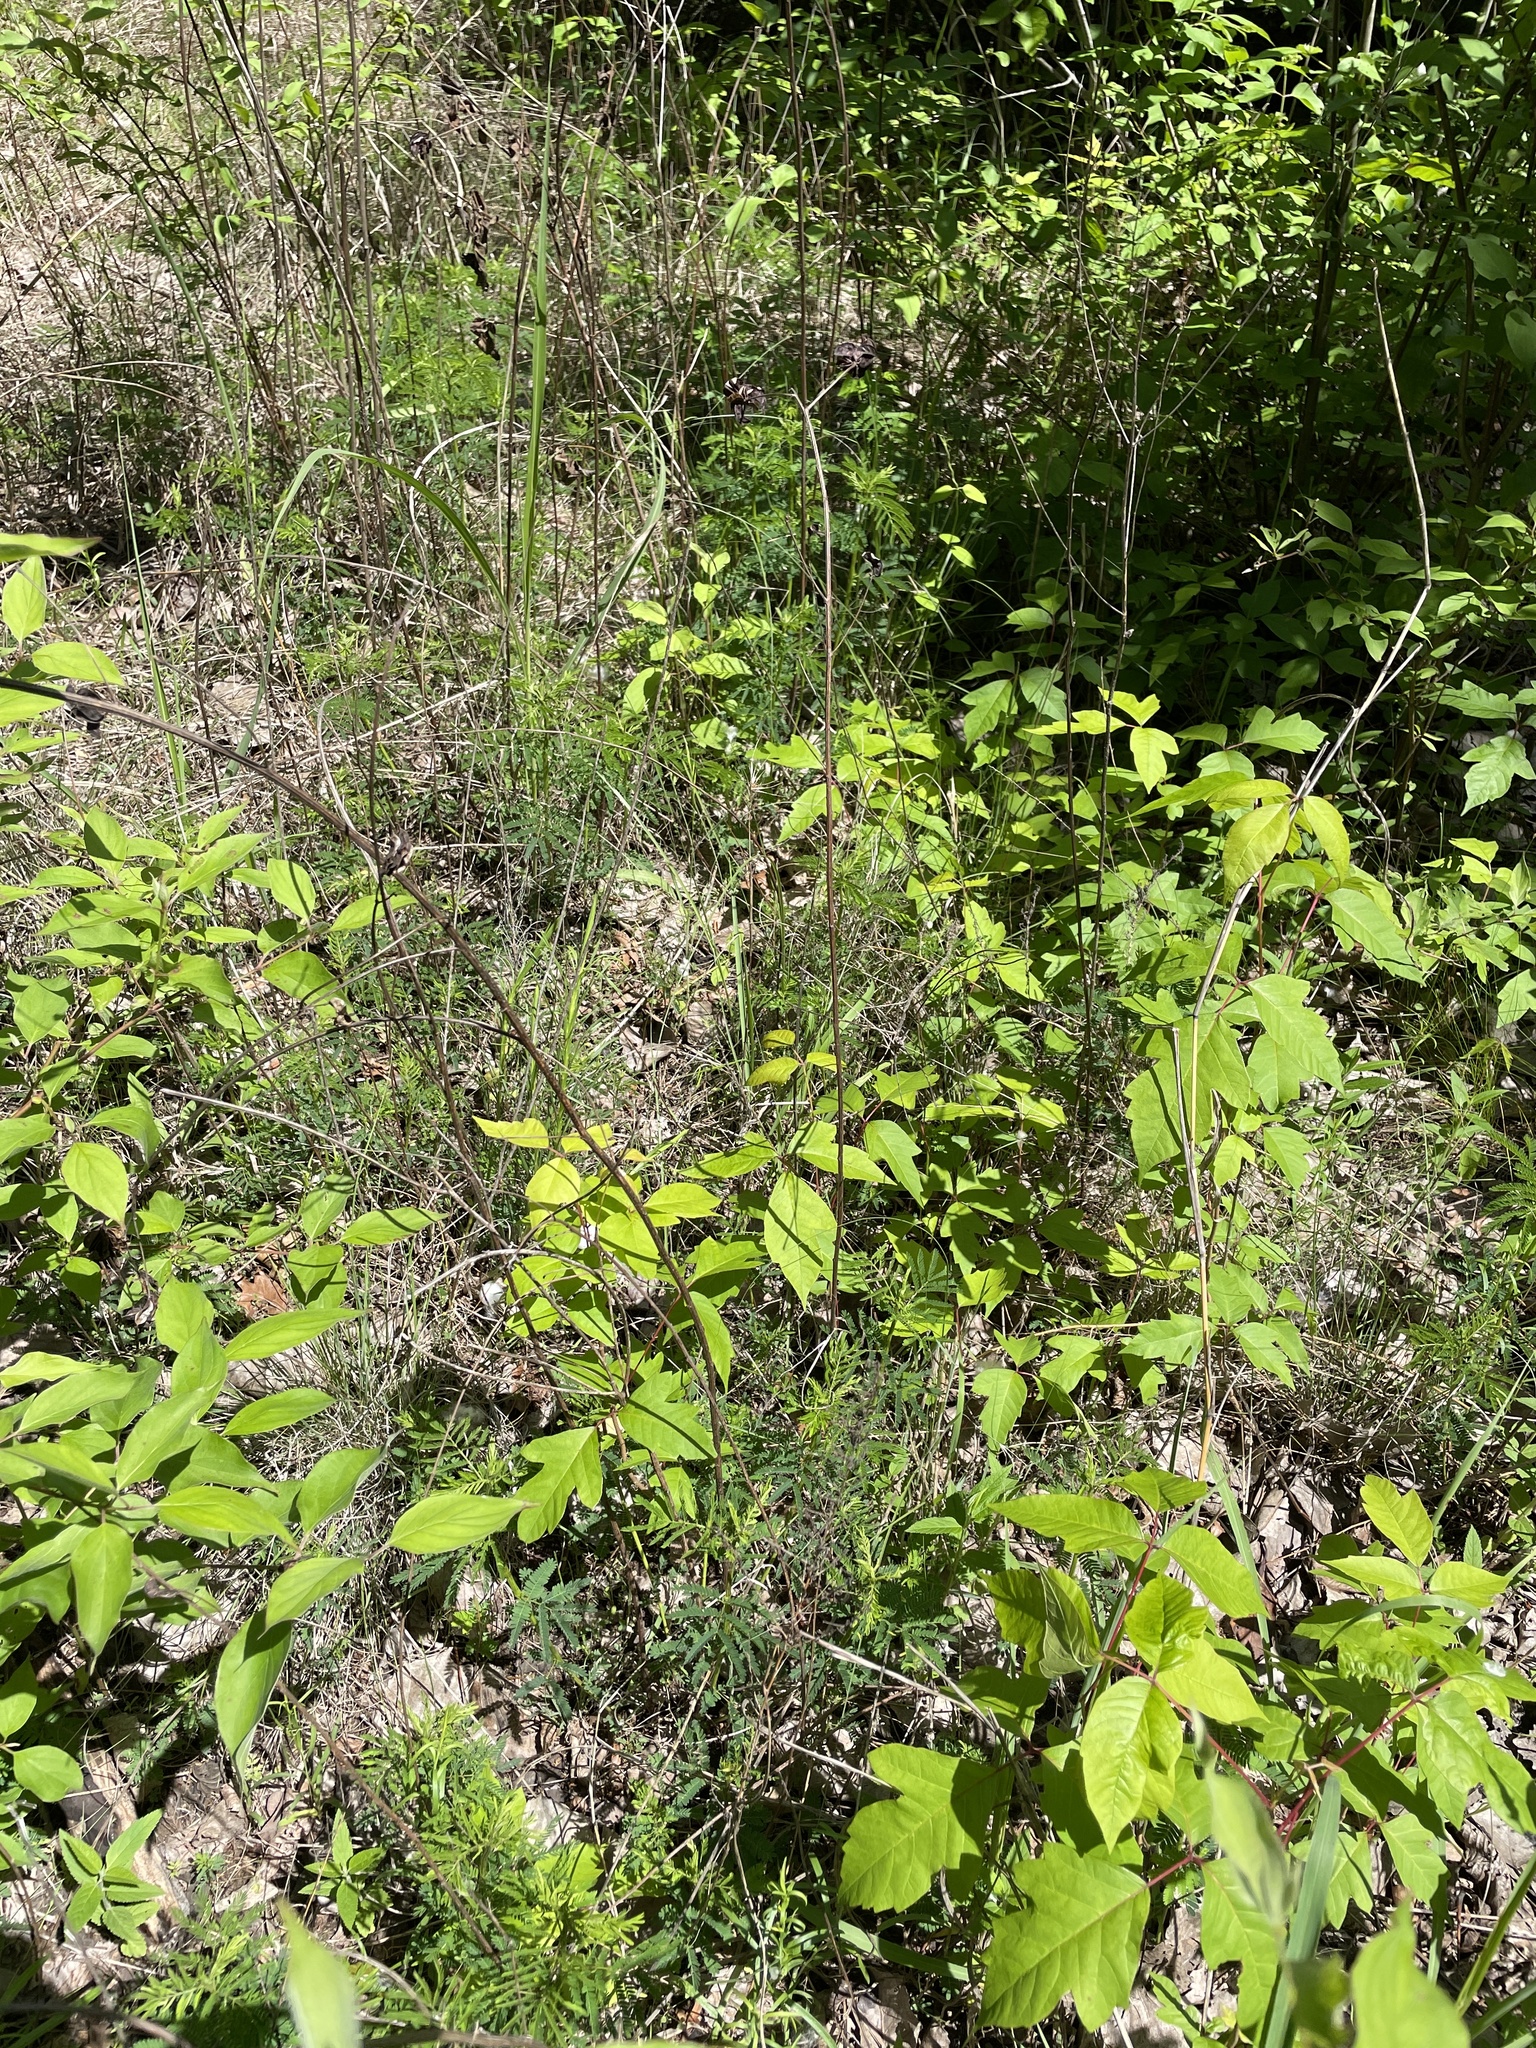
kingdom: Plantae
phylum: Tracheophyta
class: Magnoliopsida
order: Fabales
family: Fabaceae
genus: Desmanthus
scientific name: Desmanthus illinoensis
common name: Illinois bundle-flower
